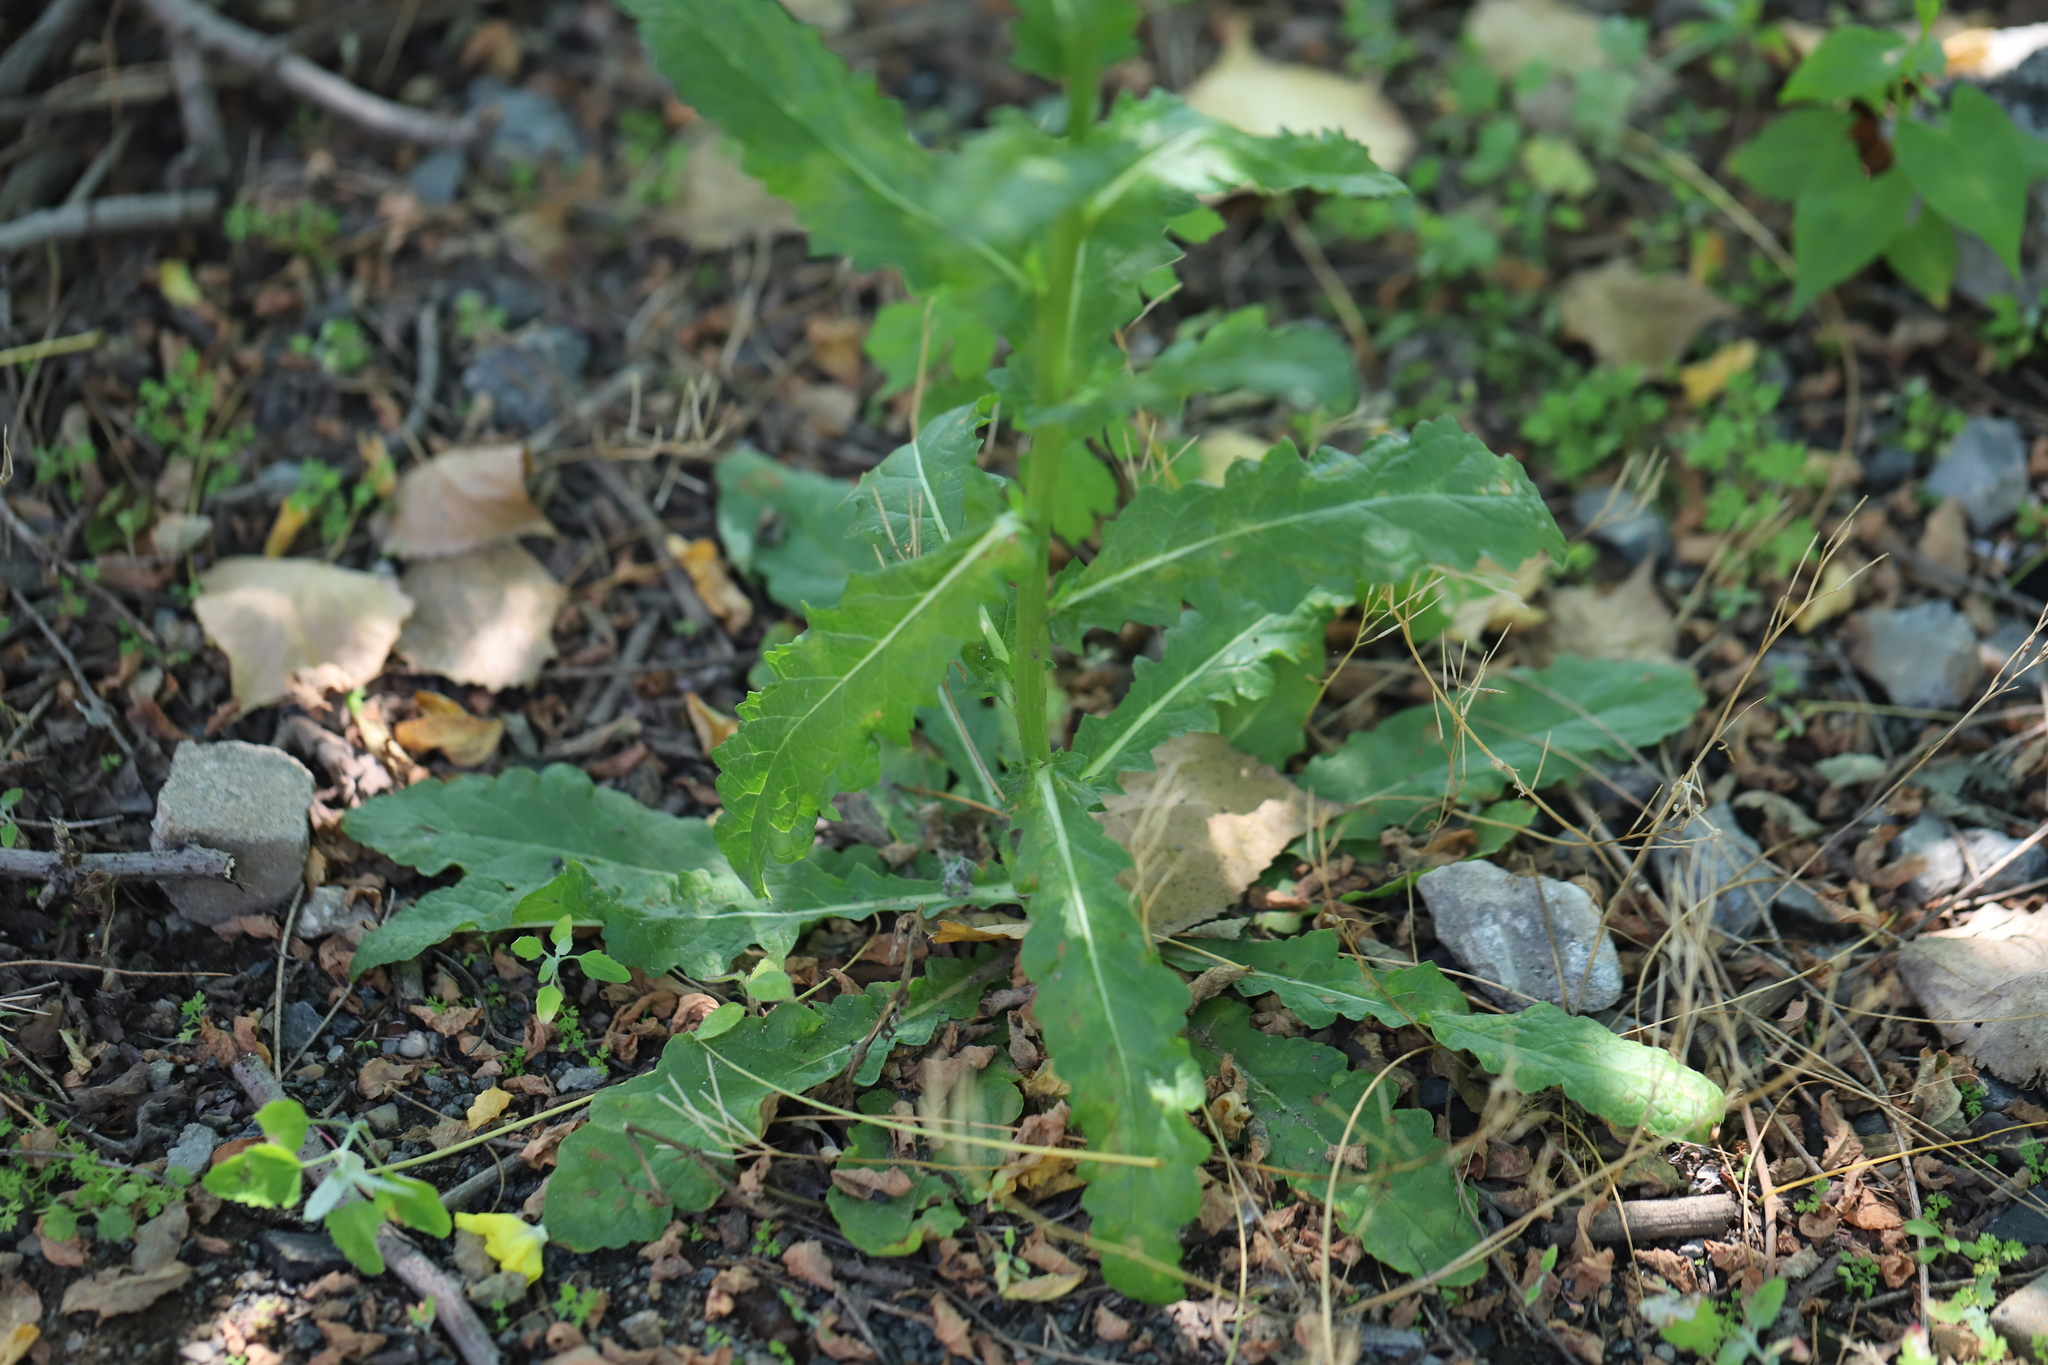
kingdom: Plantae
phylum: Tracheophyta
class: Magnoliopsida
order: Lamiales
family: Scrophulariaceae
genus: Verbascum
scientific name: Verbascum blattaria
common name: Moth mullein
